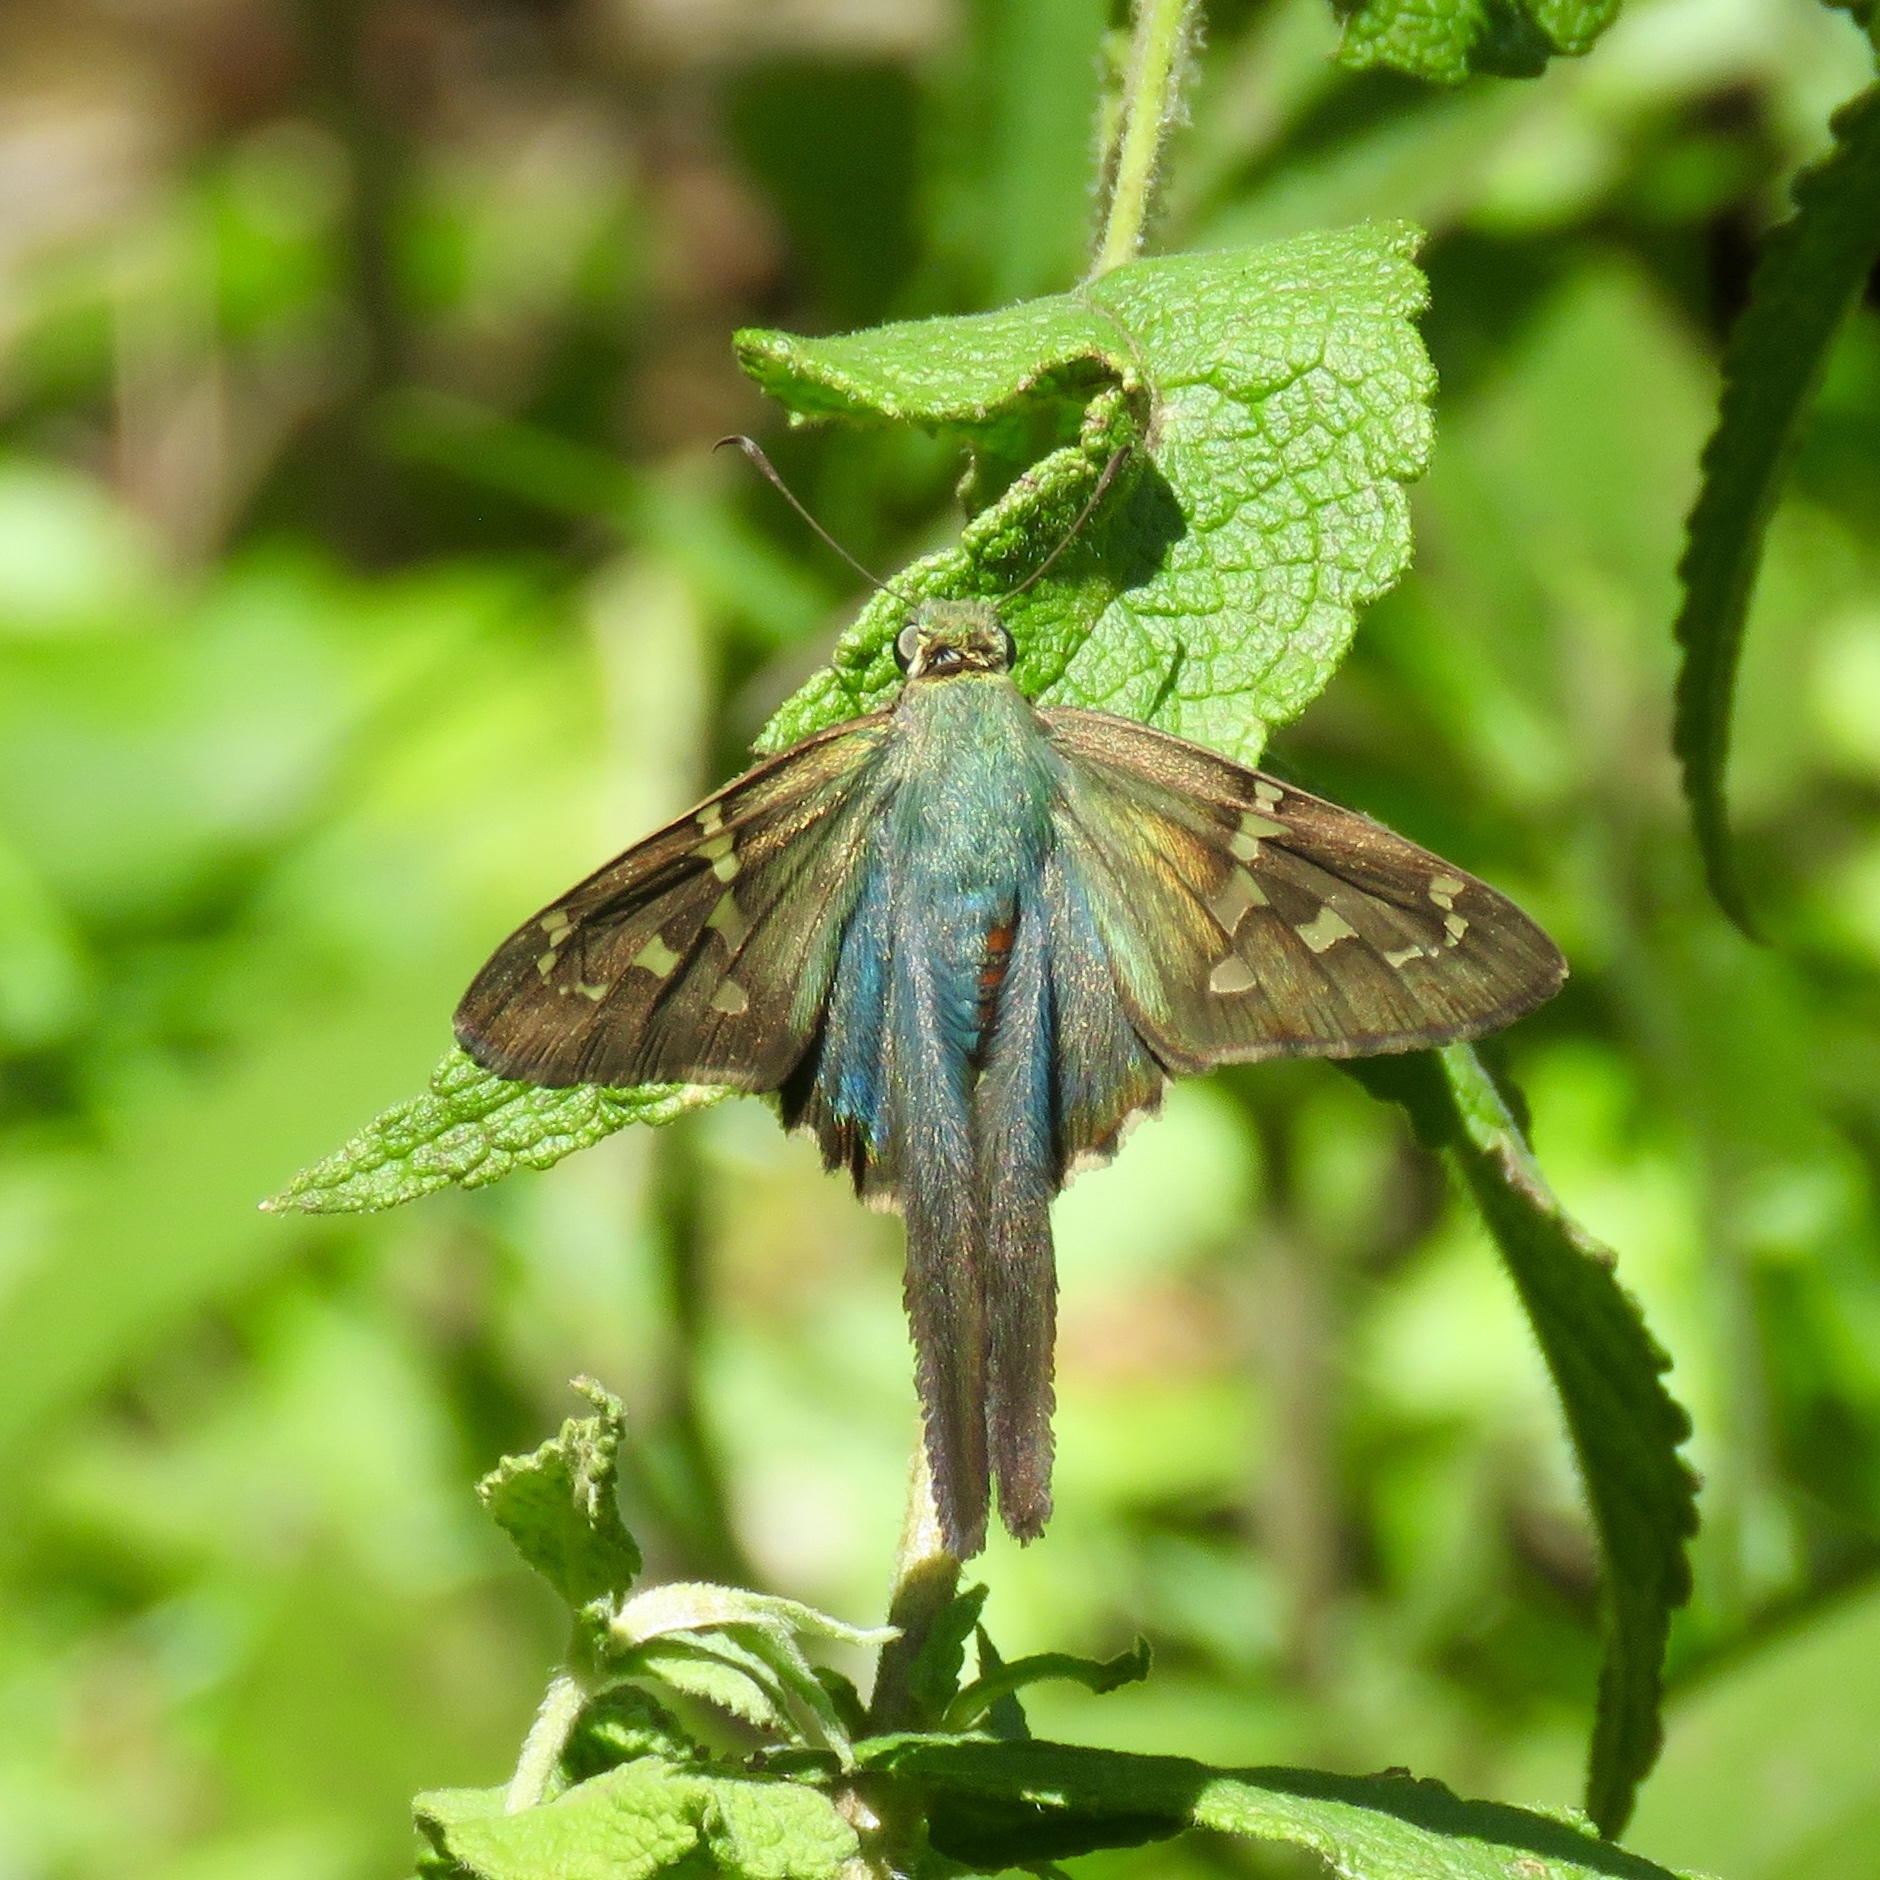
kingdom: Animalia
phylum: Arthropoda
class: Insecta
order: Lepidoptera
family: Hesperiidae
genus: Urbanus
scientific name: Urbanus proteus
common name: Long-tailed skipper
